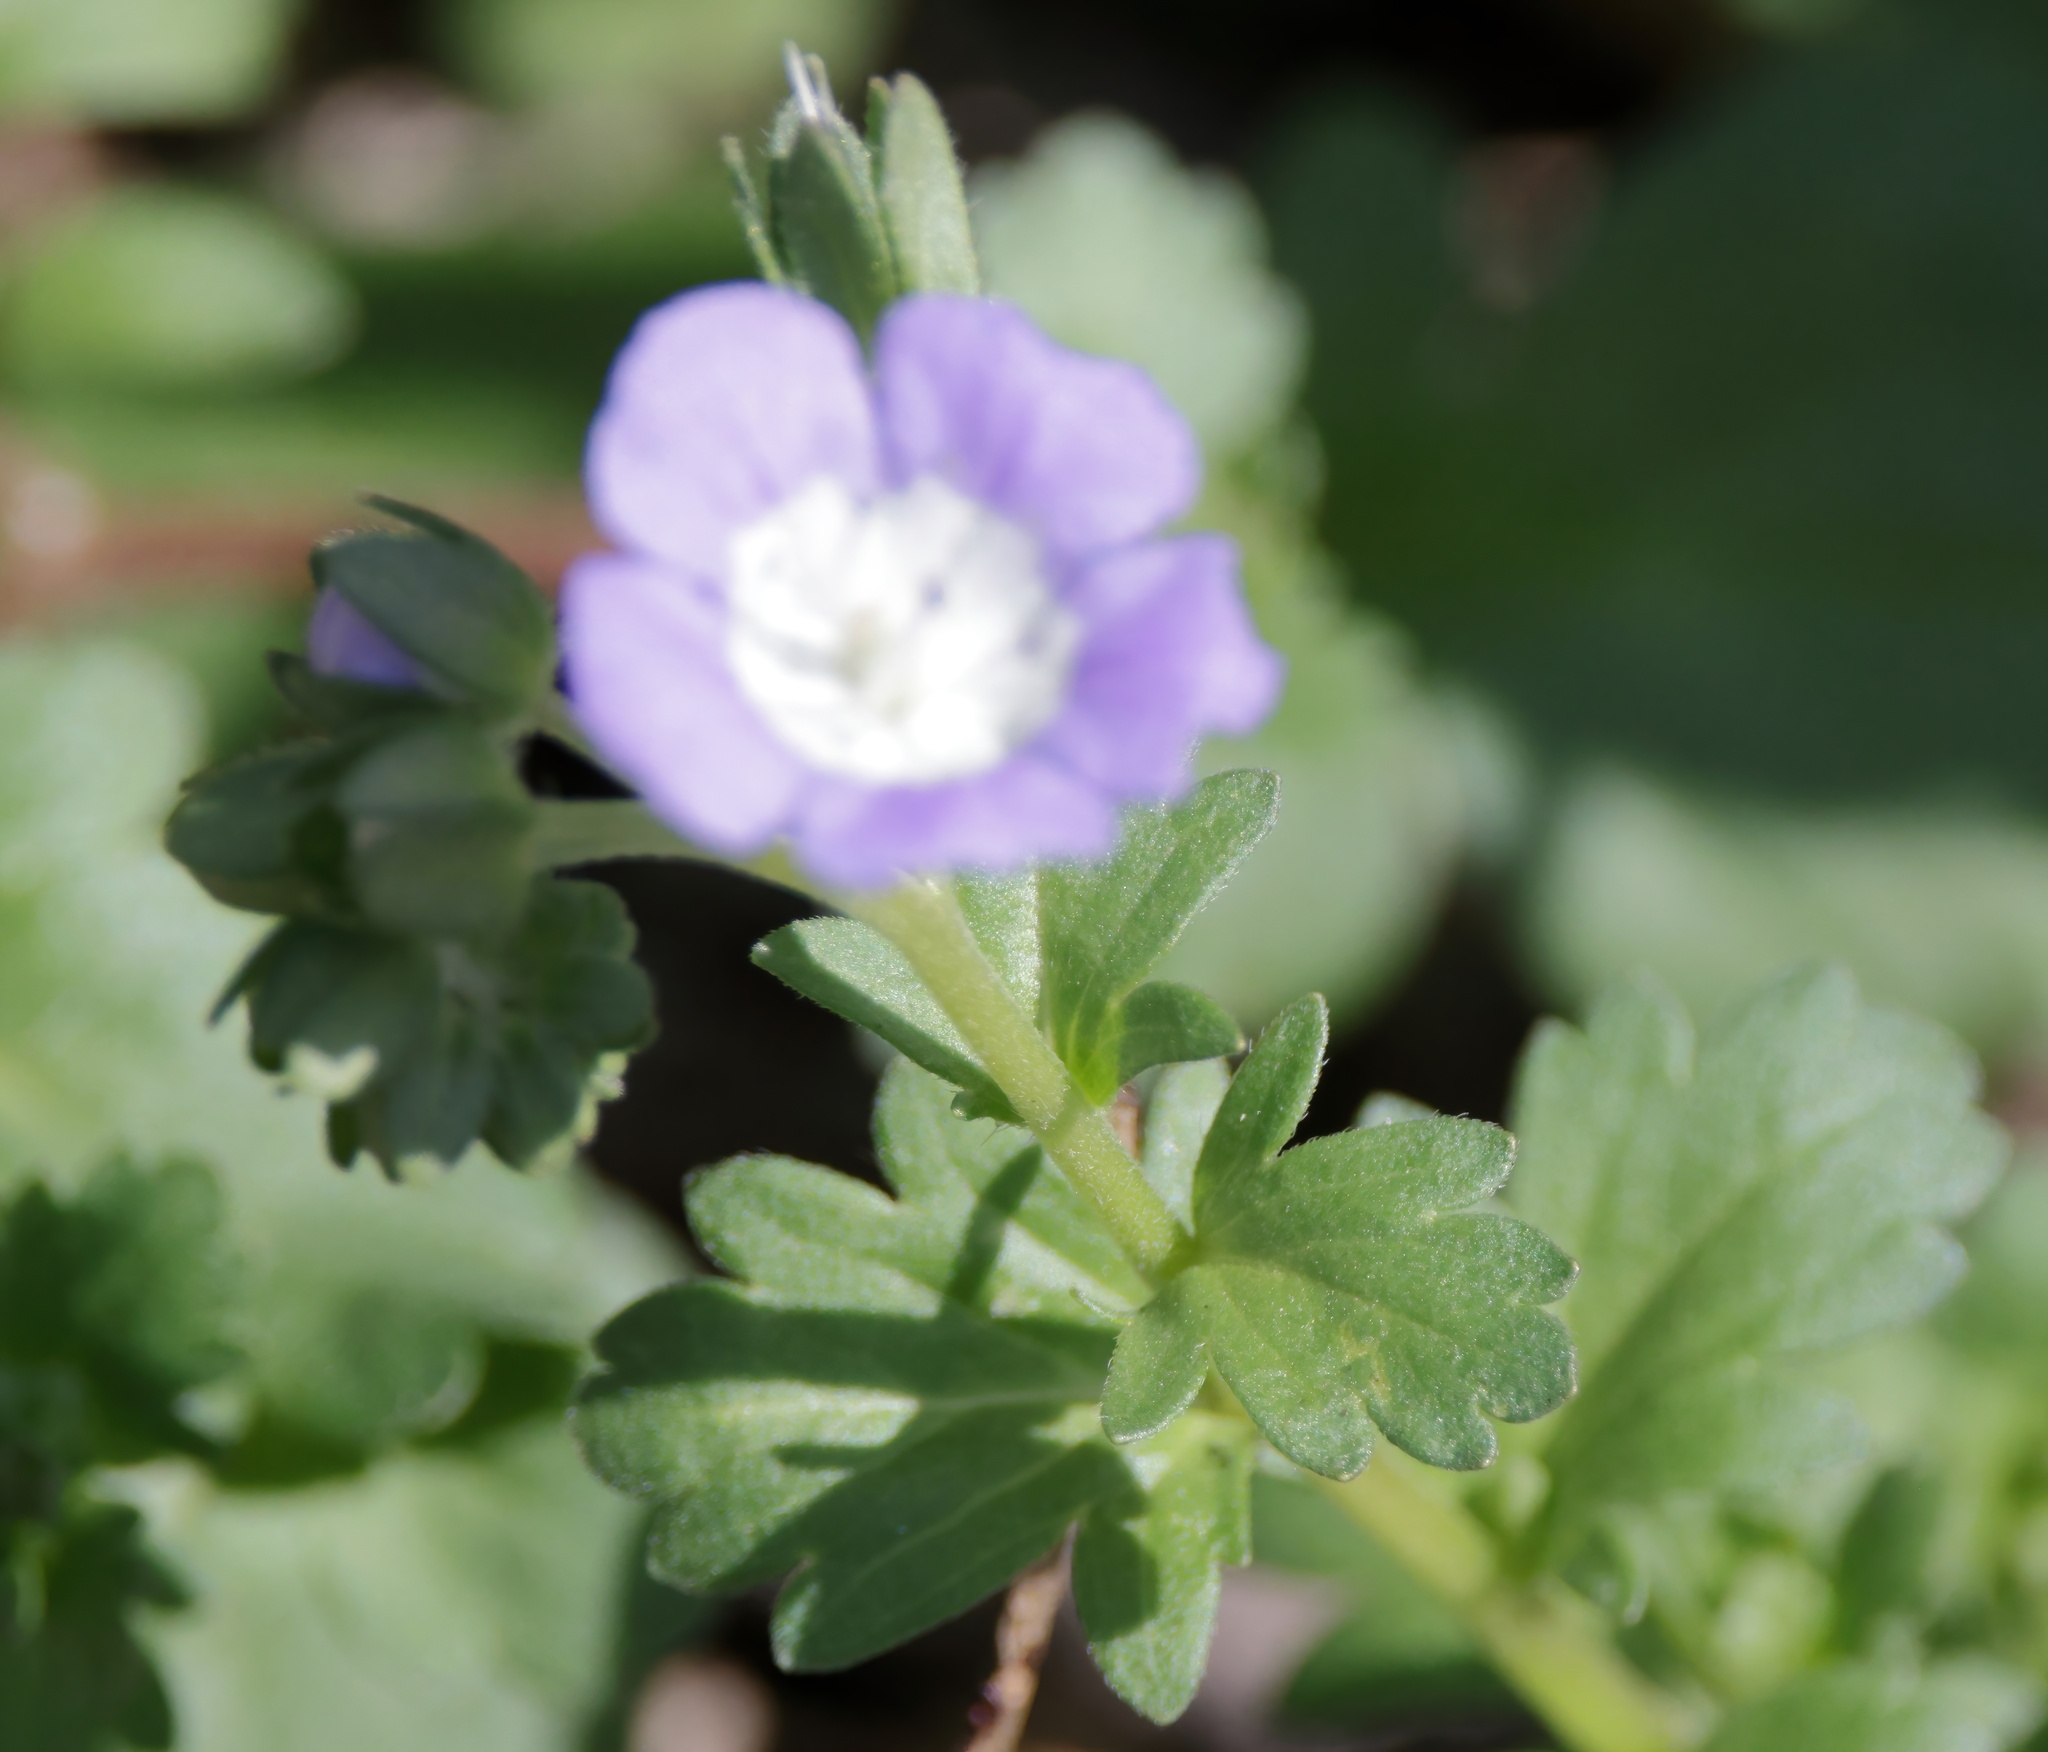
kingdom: Plantae
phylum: Tracheophyta
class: Magnoliopsida
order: Boraginales
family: Hydrophyllaceae
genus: Phacelia
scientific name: Phacelia patuliflora
